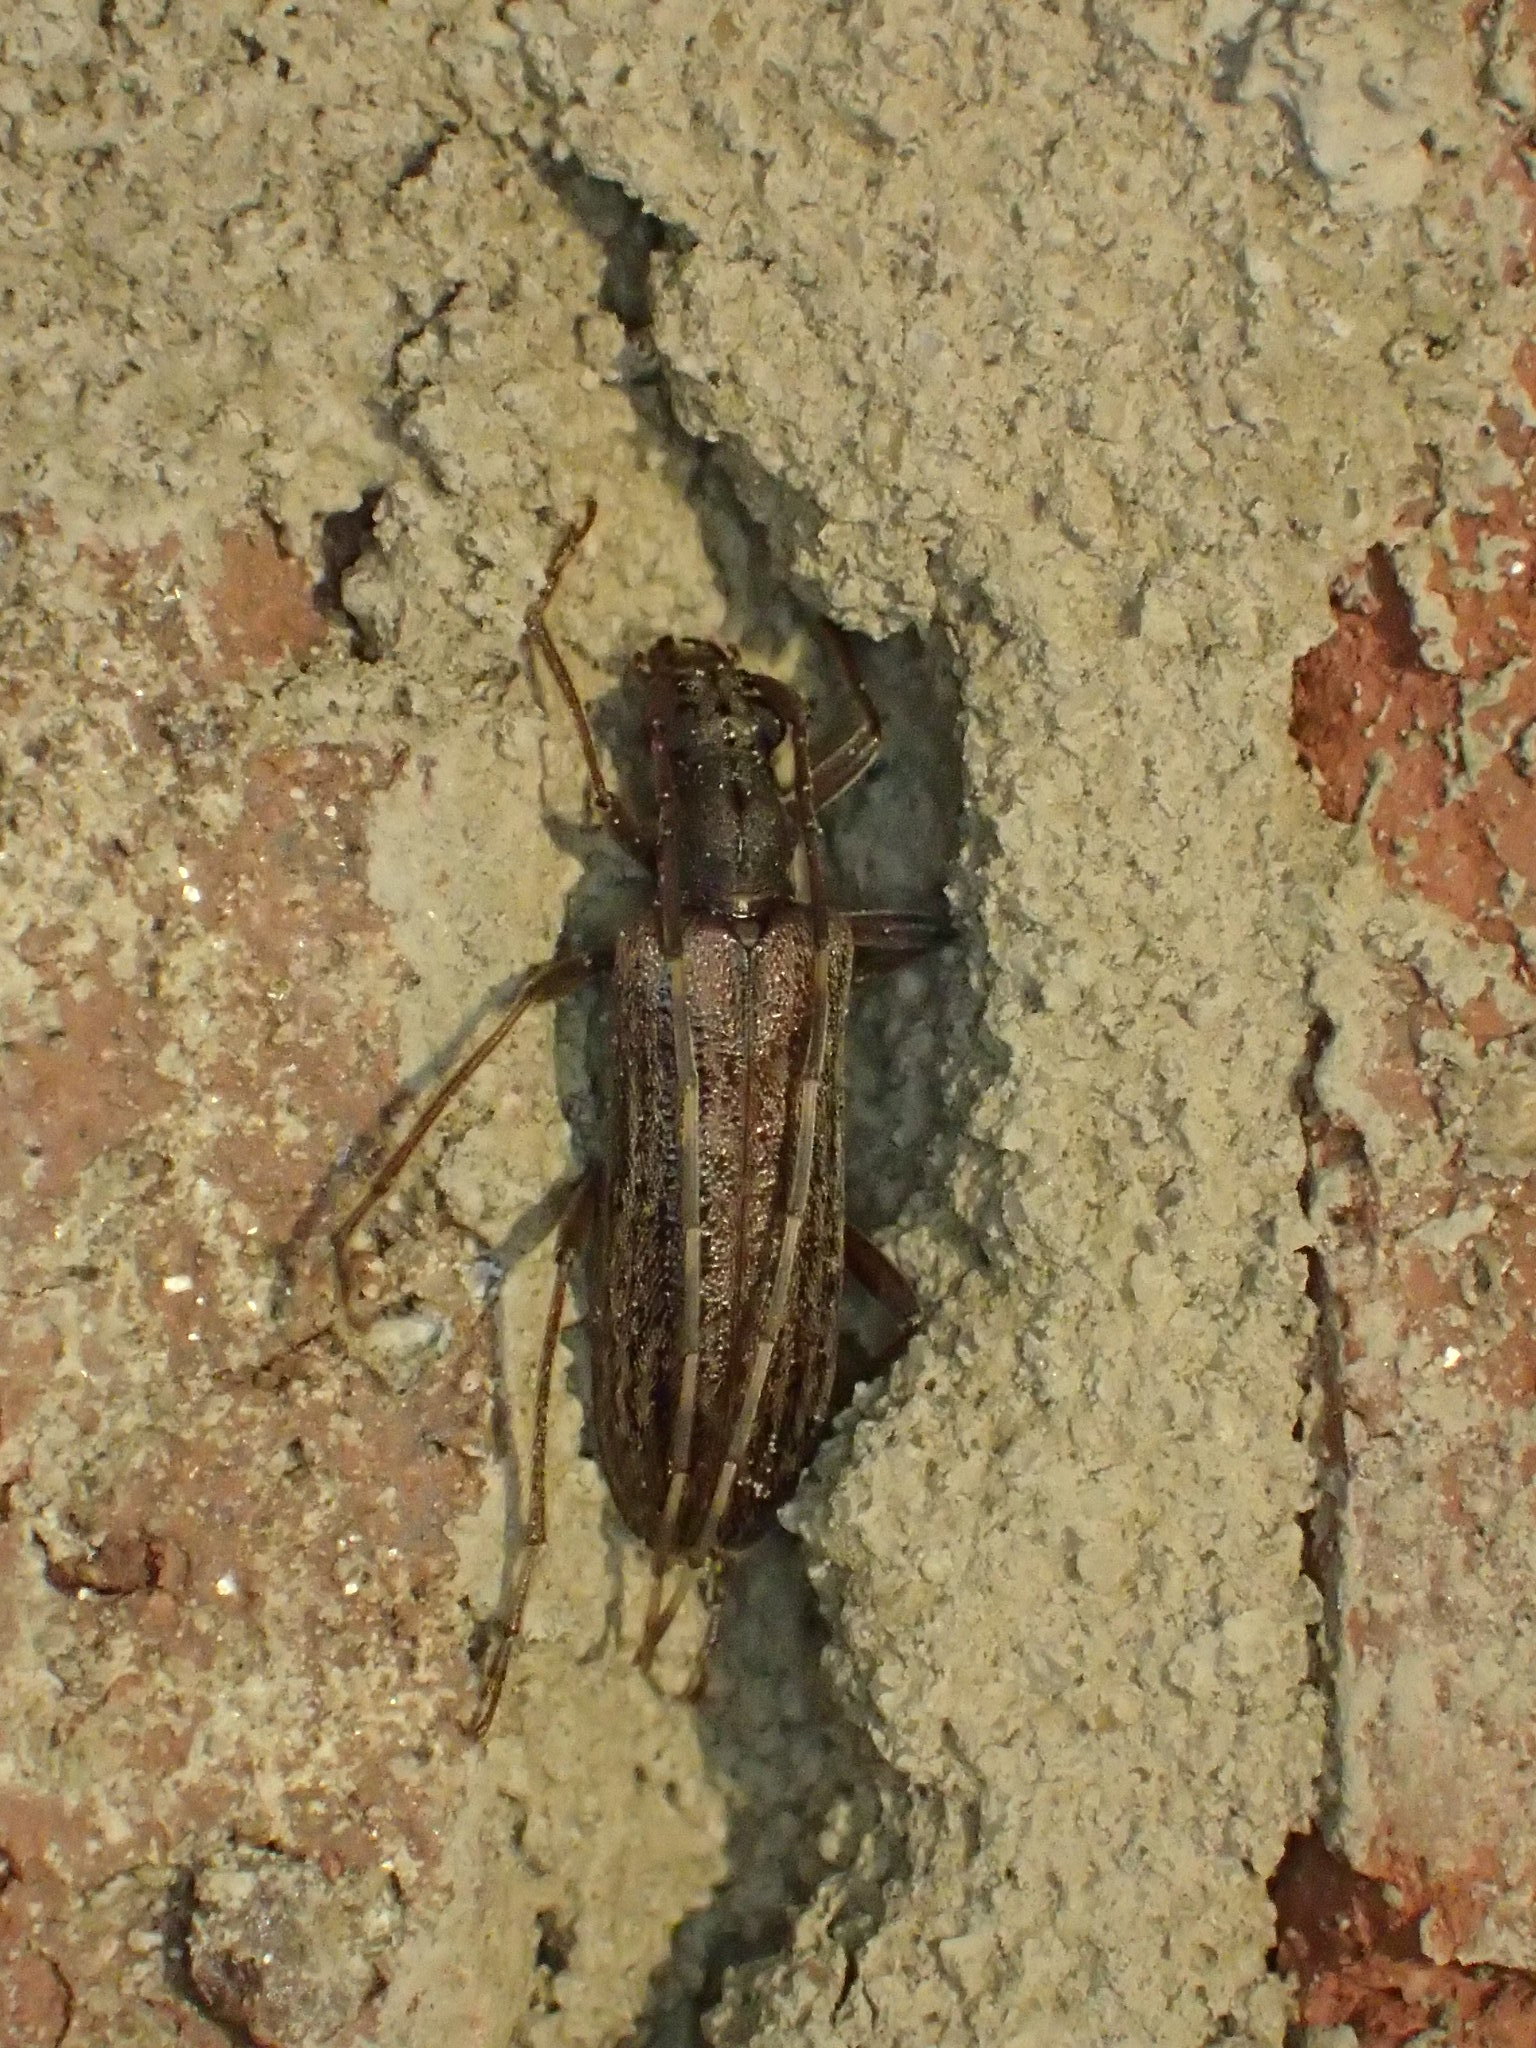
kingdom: Animalia
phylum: Arthropoda
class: Insecta
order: Coleoptera
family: Cerambycidae
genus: Centrodera
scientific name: Centrodera sublineata
